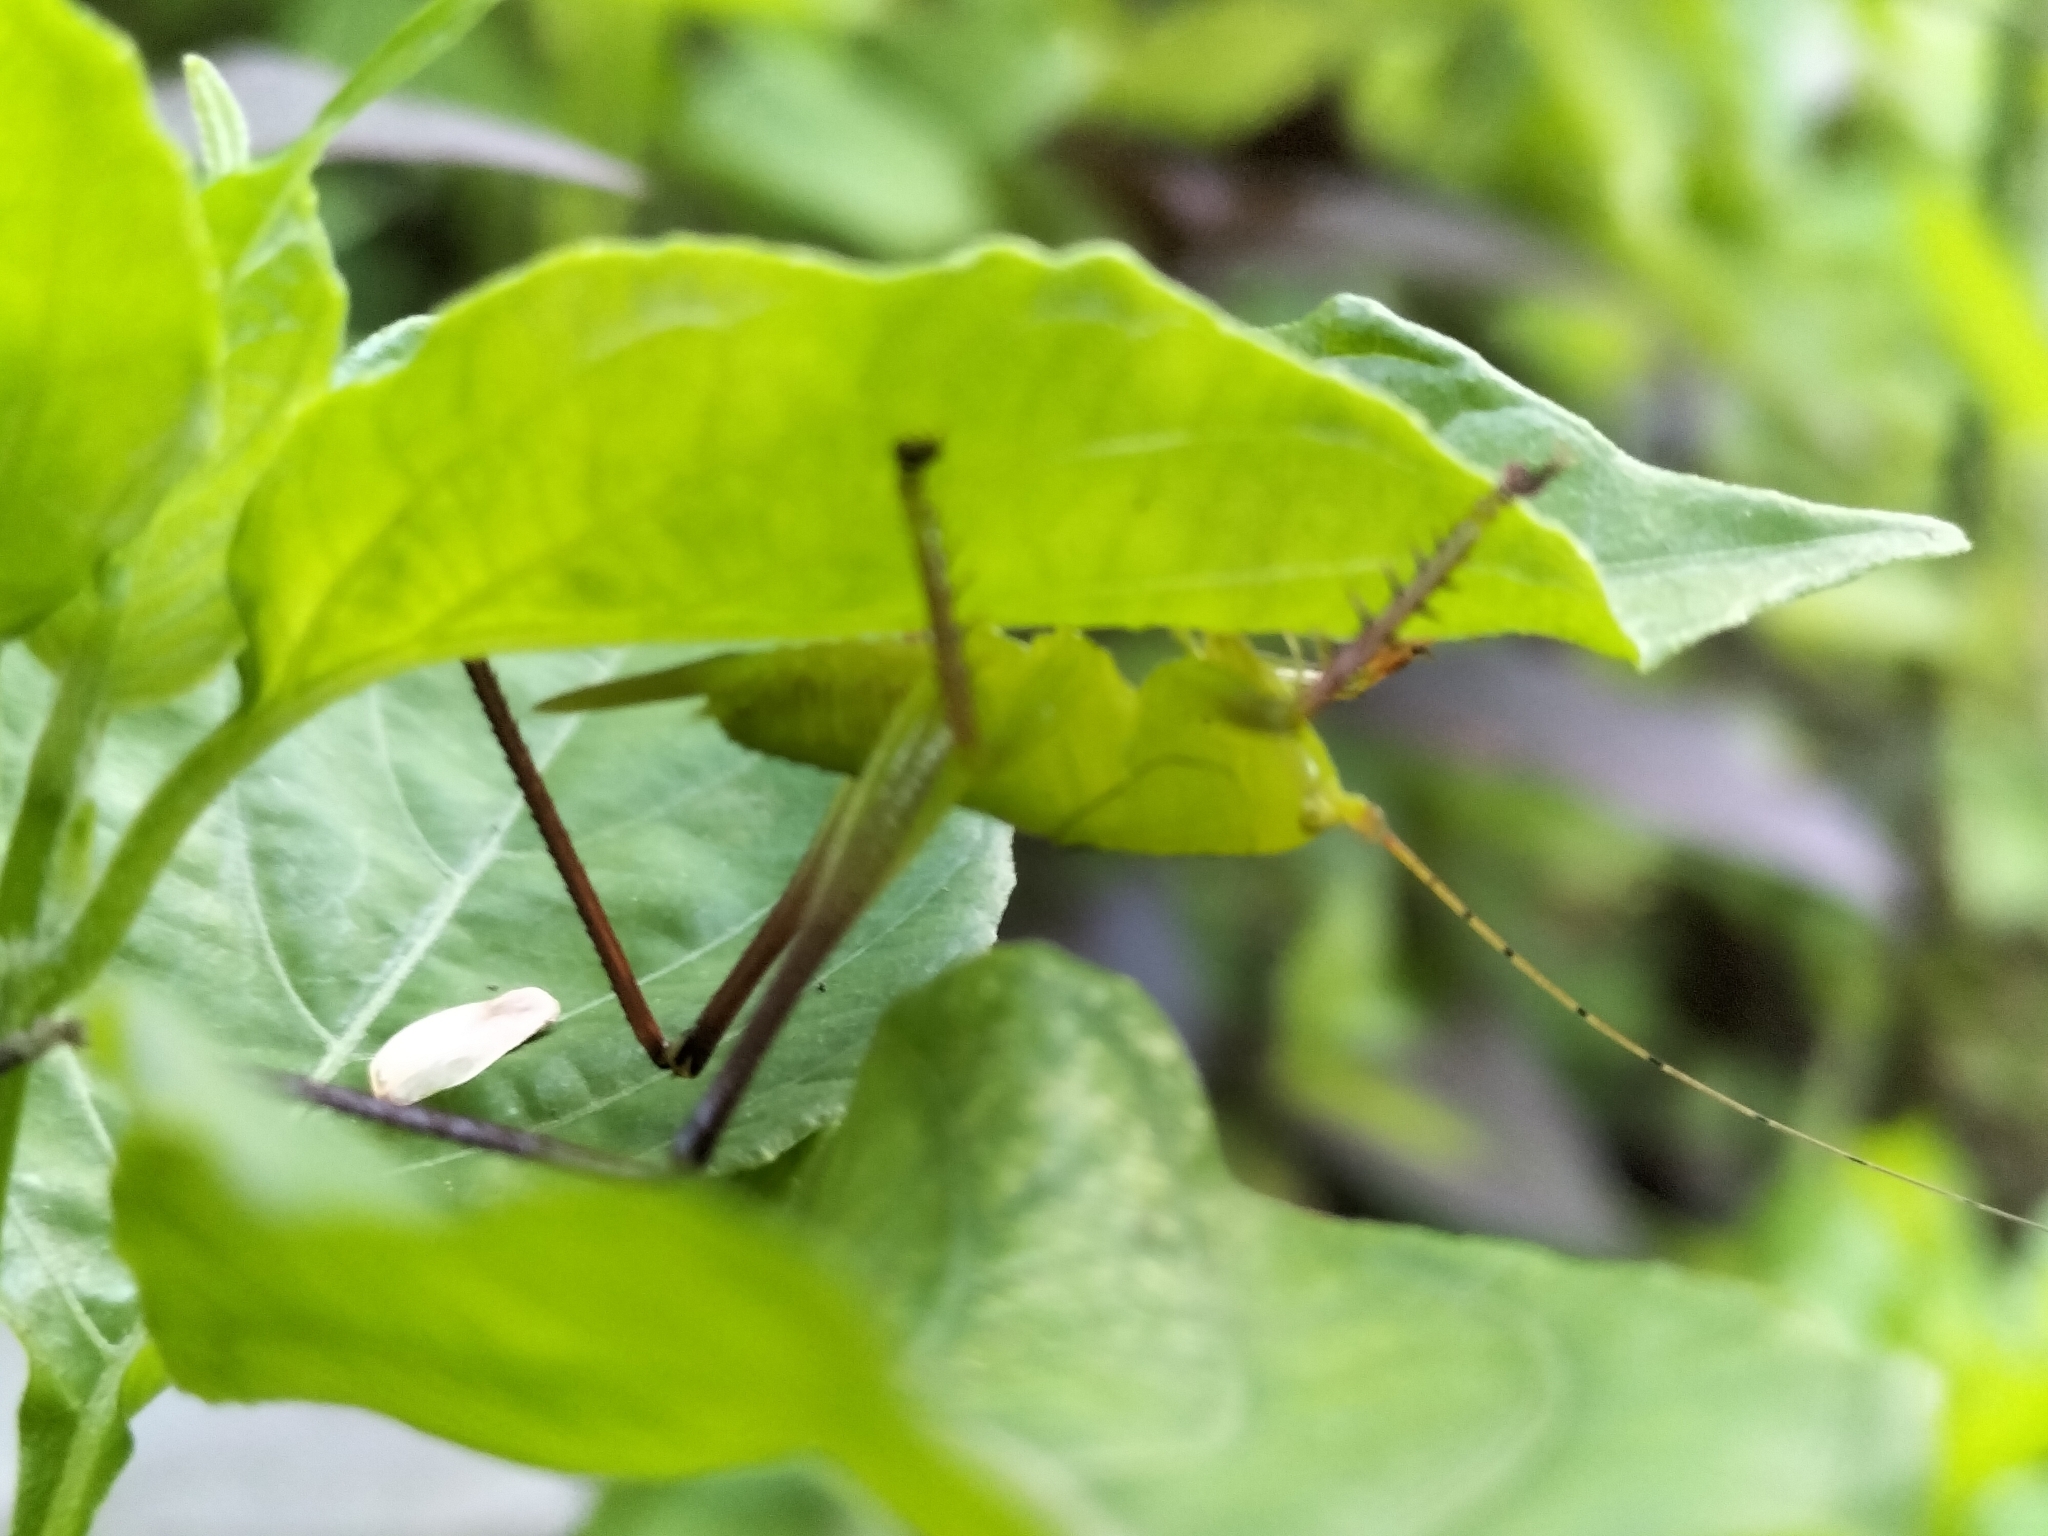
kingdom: Animalia
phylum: Arthropoda
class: Insecta
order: Orthoptera
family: Tettigoniidae
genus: Hexacentrus
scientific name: Hexacentrus mundurra
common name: Mundurra balloon-winged katydid
